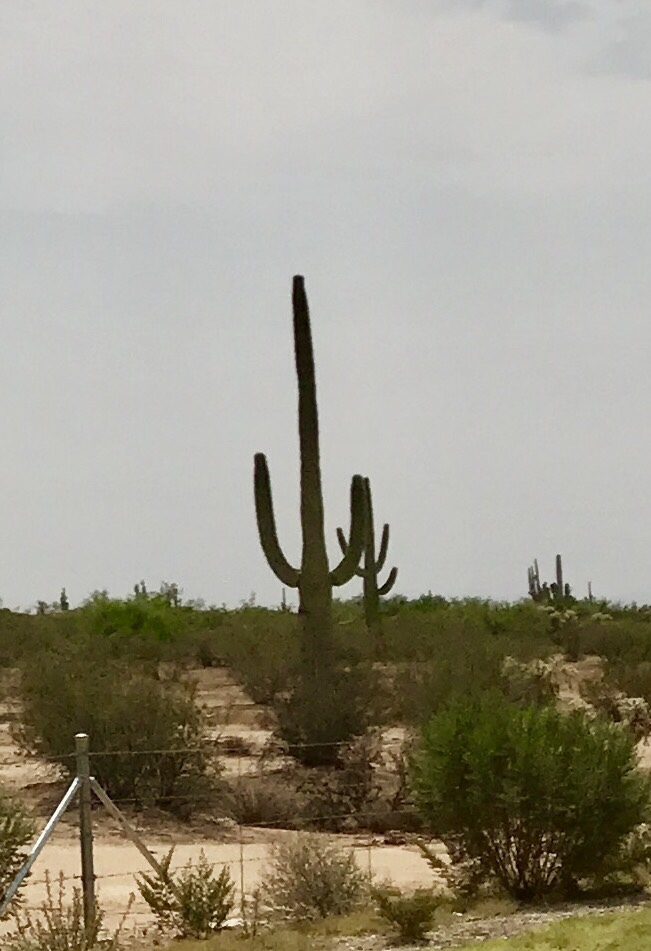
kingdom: Plantae
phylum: Tracheophyta
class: Magnoliopsida
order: Caryophyllales
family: Cactaceae
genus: Carnegiea
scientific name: Carnegiea gigantea
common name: Saguaro
